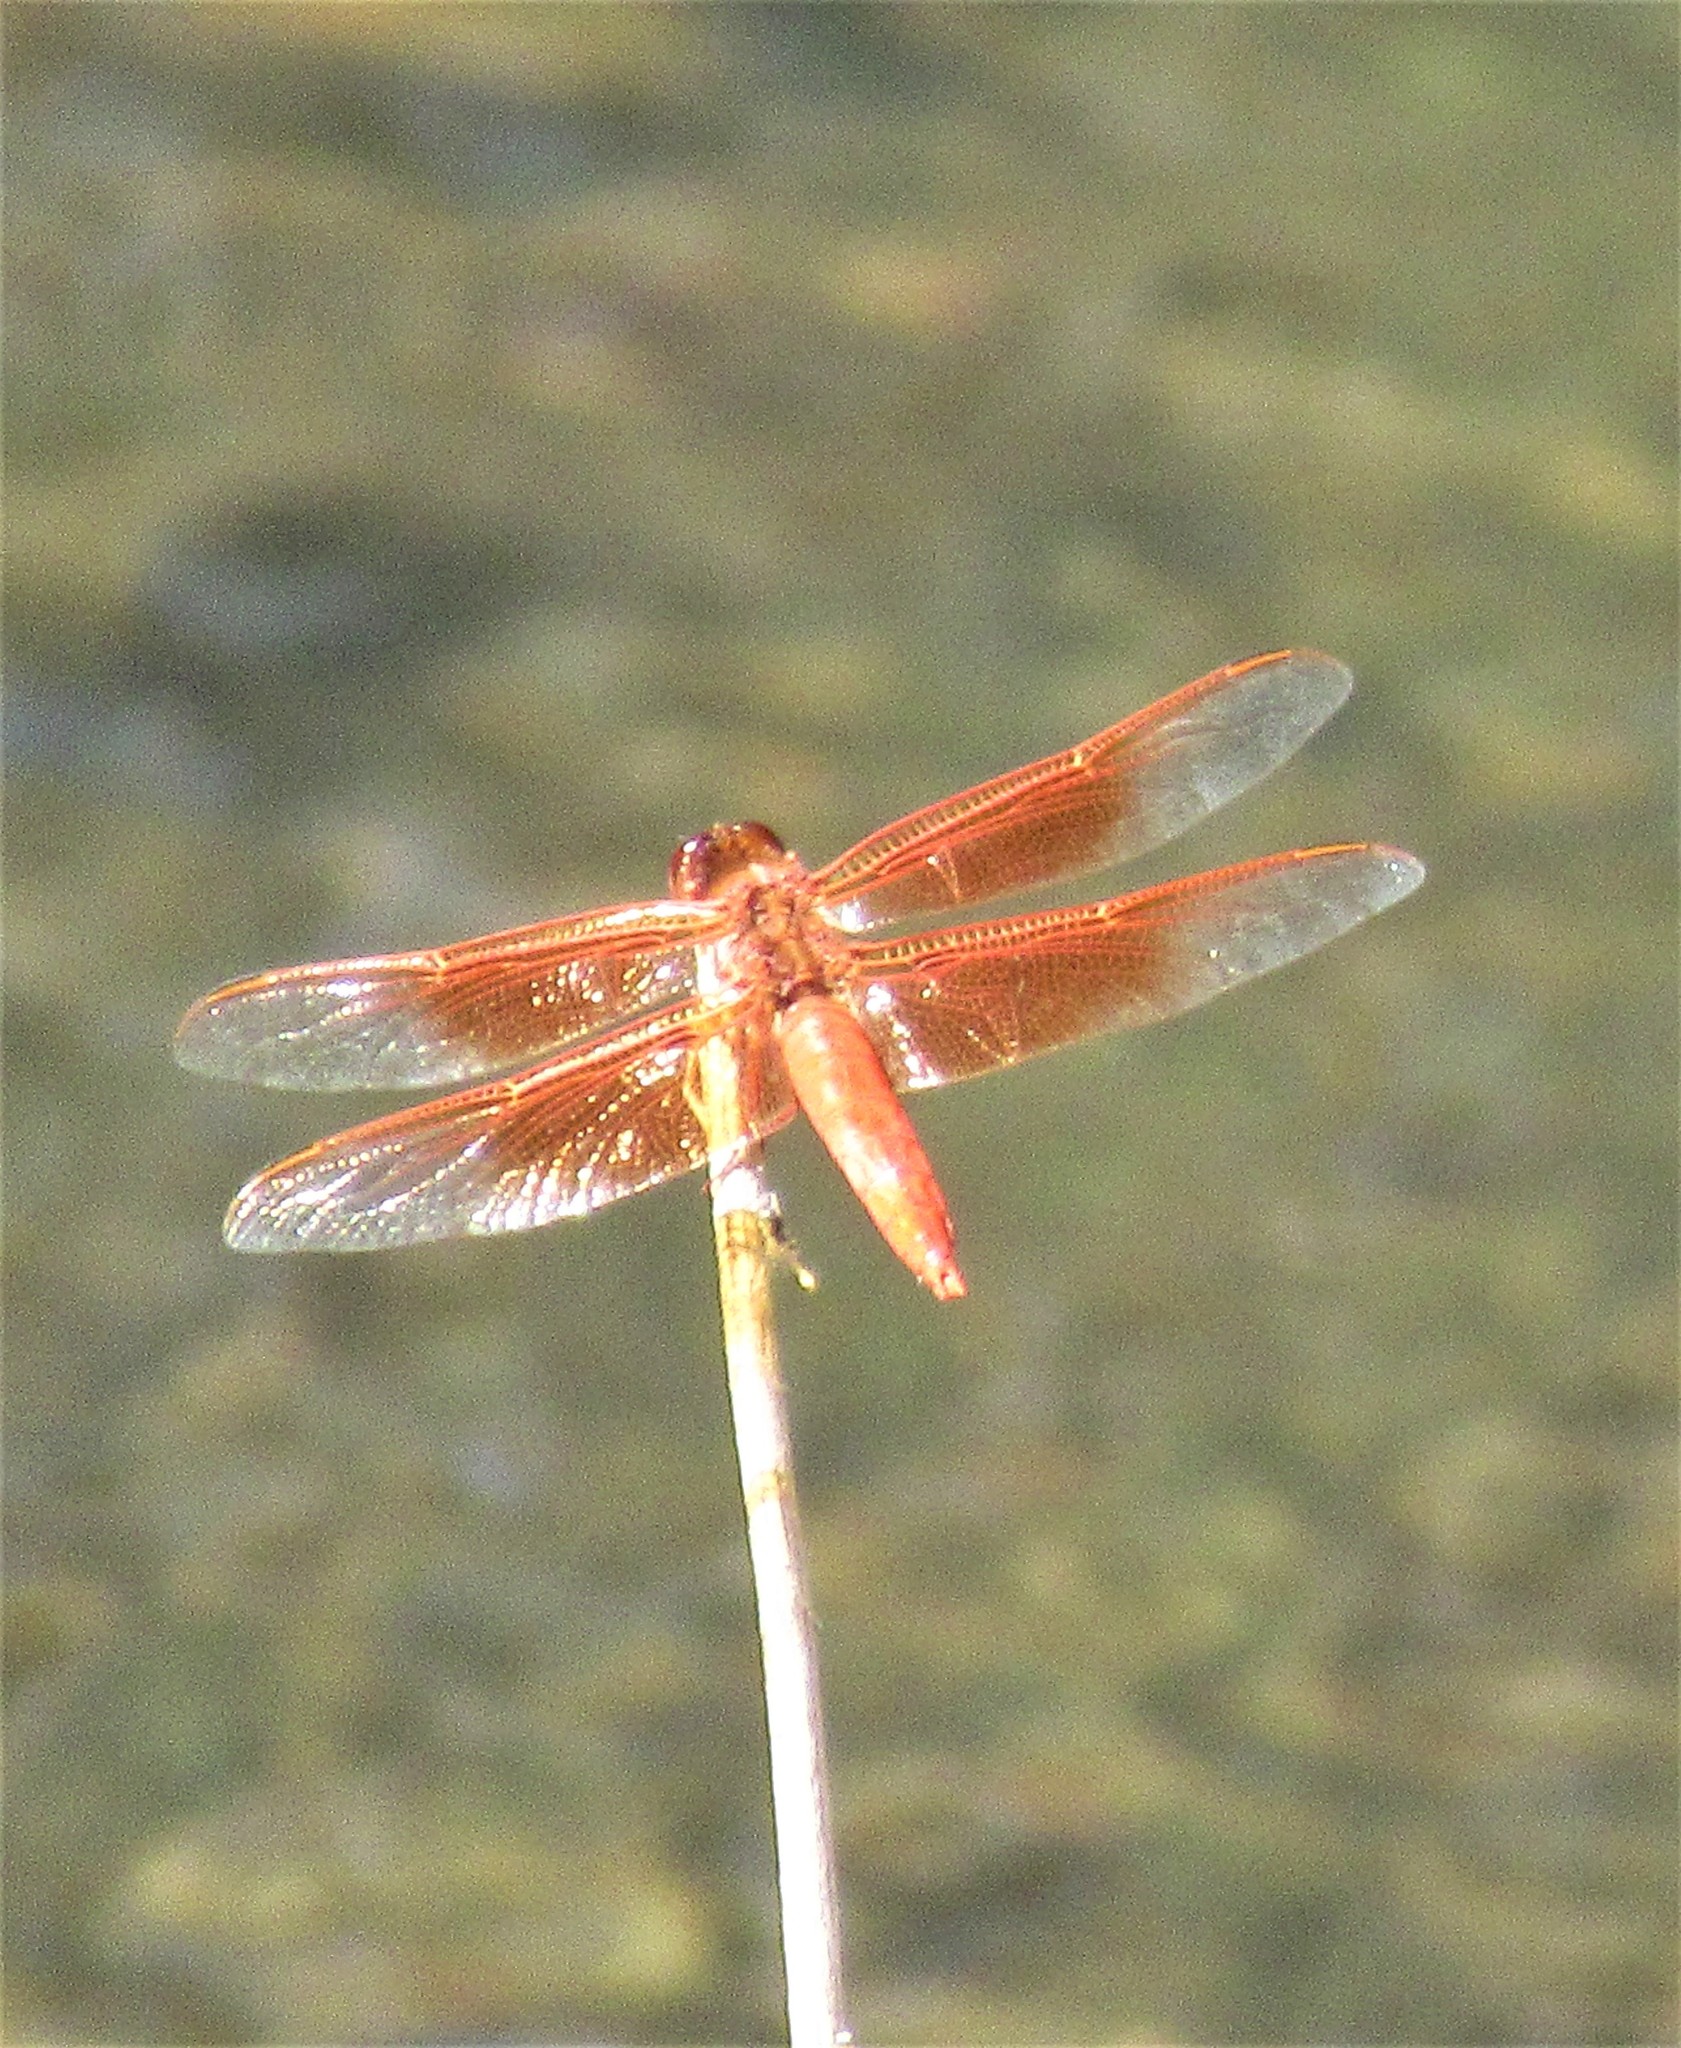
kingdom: Animalia
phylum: Arthropoda
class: Insecta
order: Odonata
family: Libellulidae
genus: Libellula
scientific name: Libellula saturata
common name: Flame skimmer
